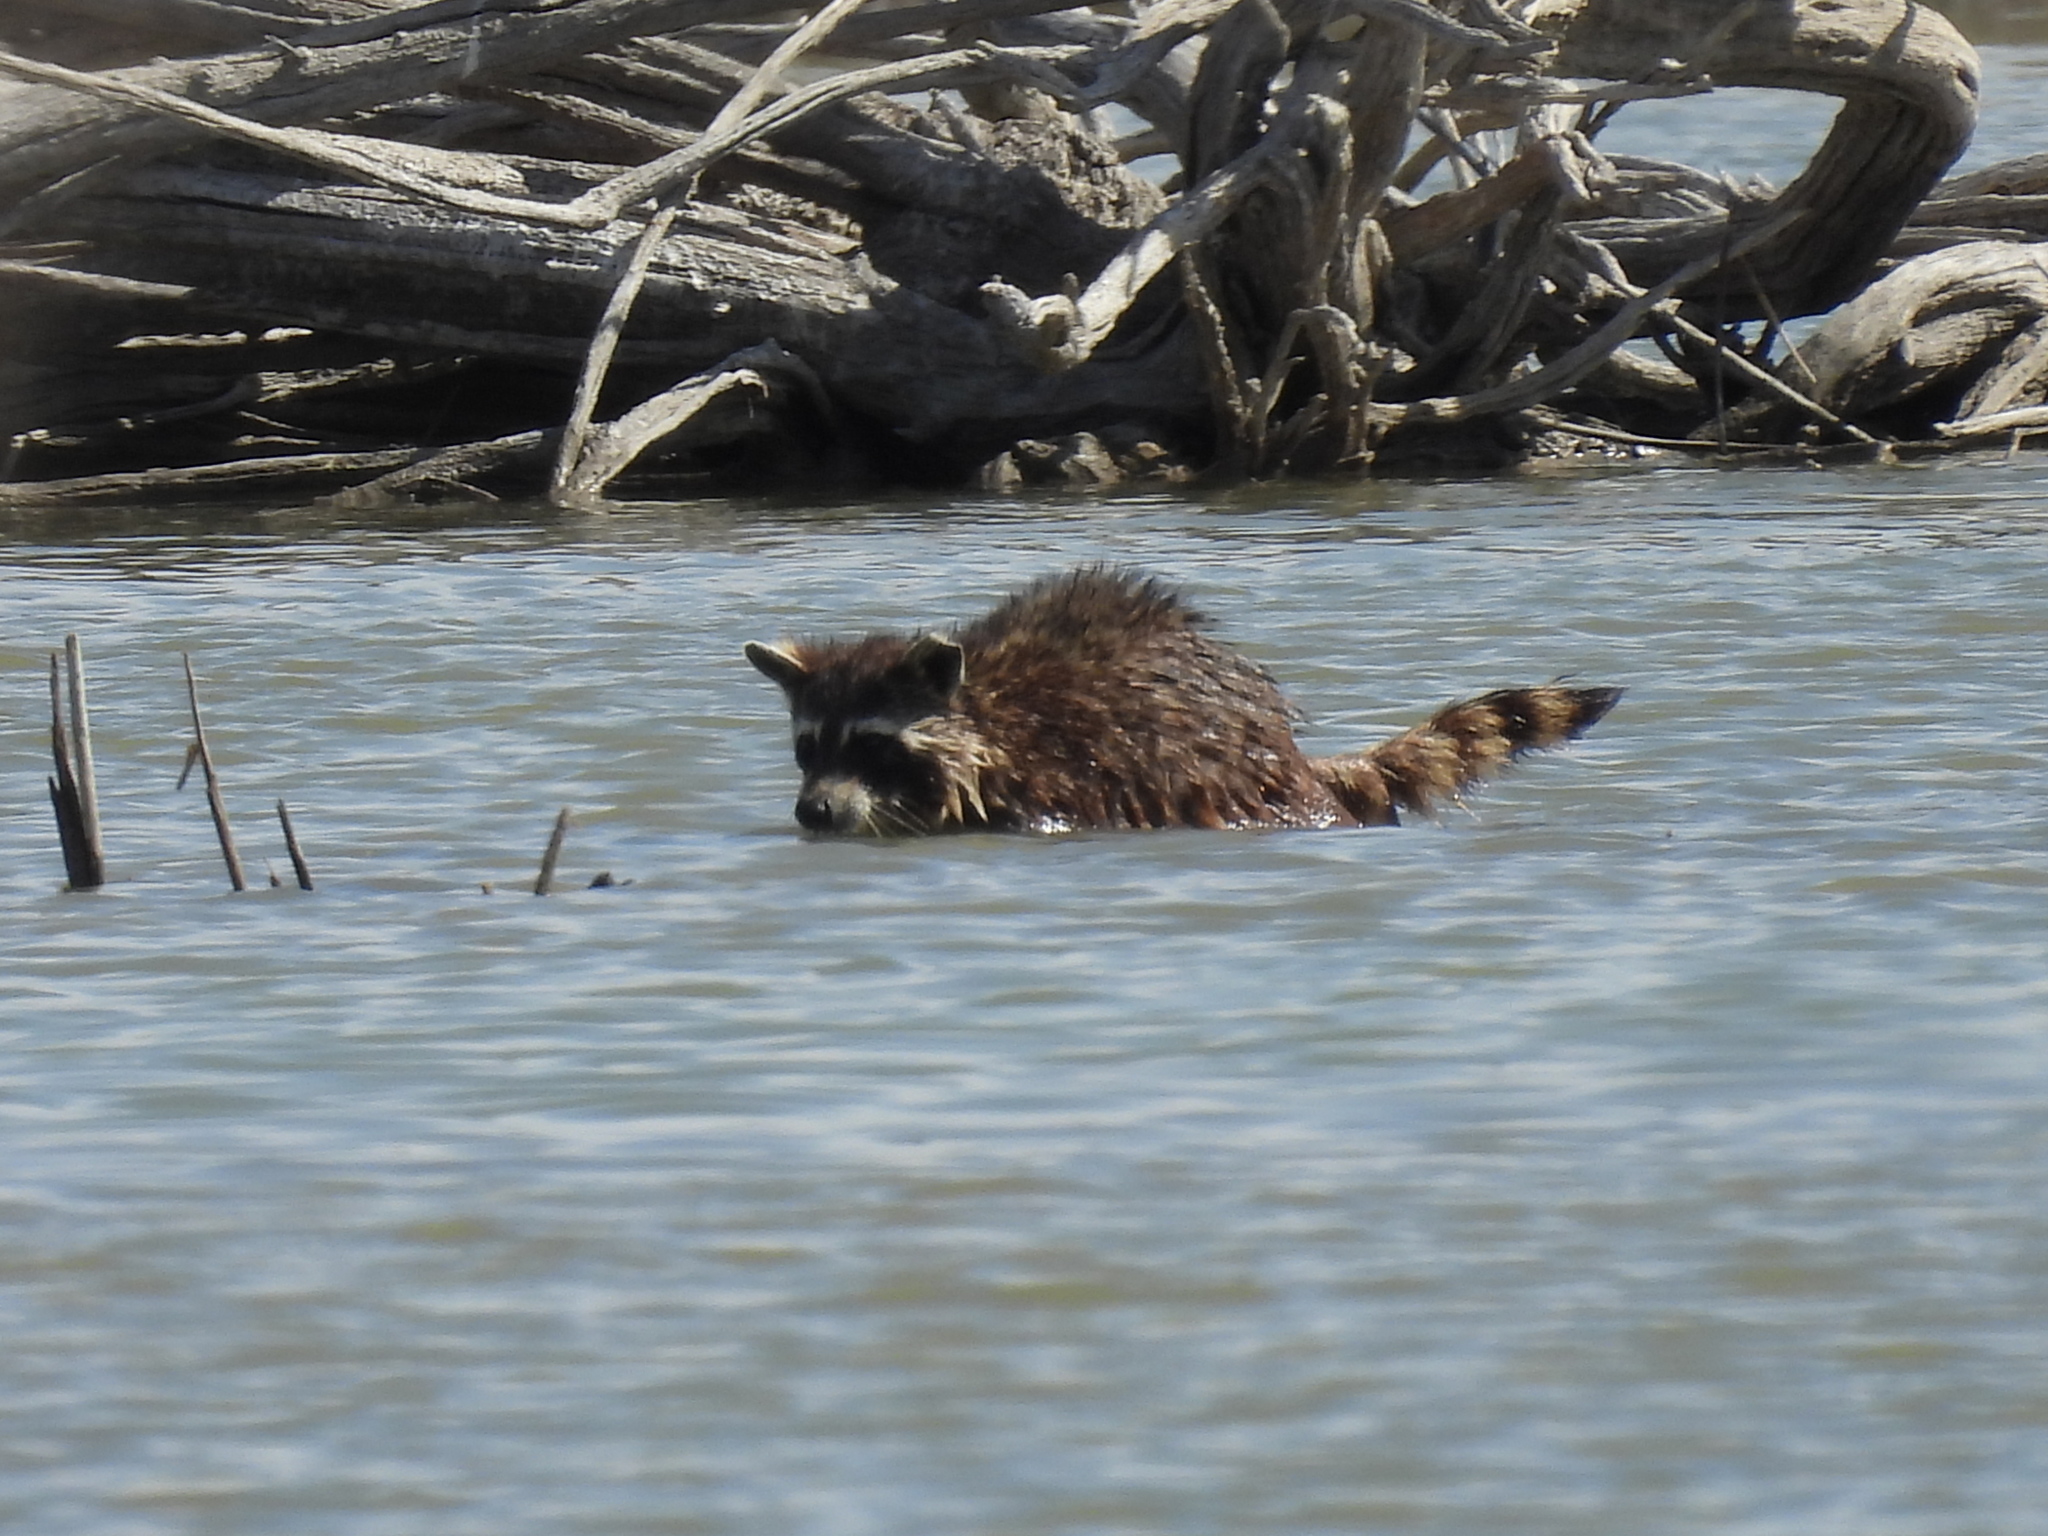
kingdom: Animalia
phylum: Chordata
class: Mammalia
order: Carnivora
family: Procyonidae
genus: Procyon
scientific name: Procyon lotor
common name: Raccoon
